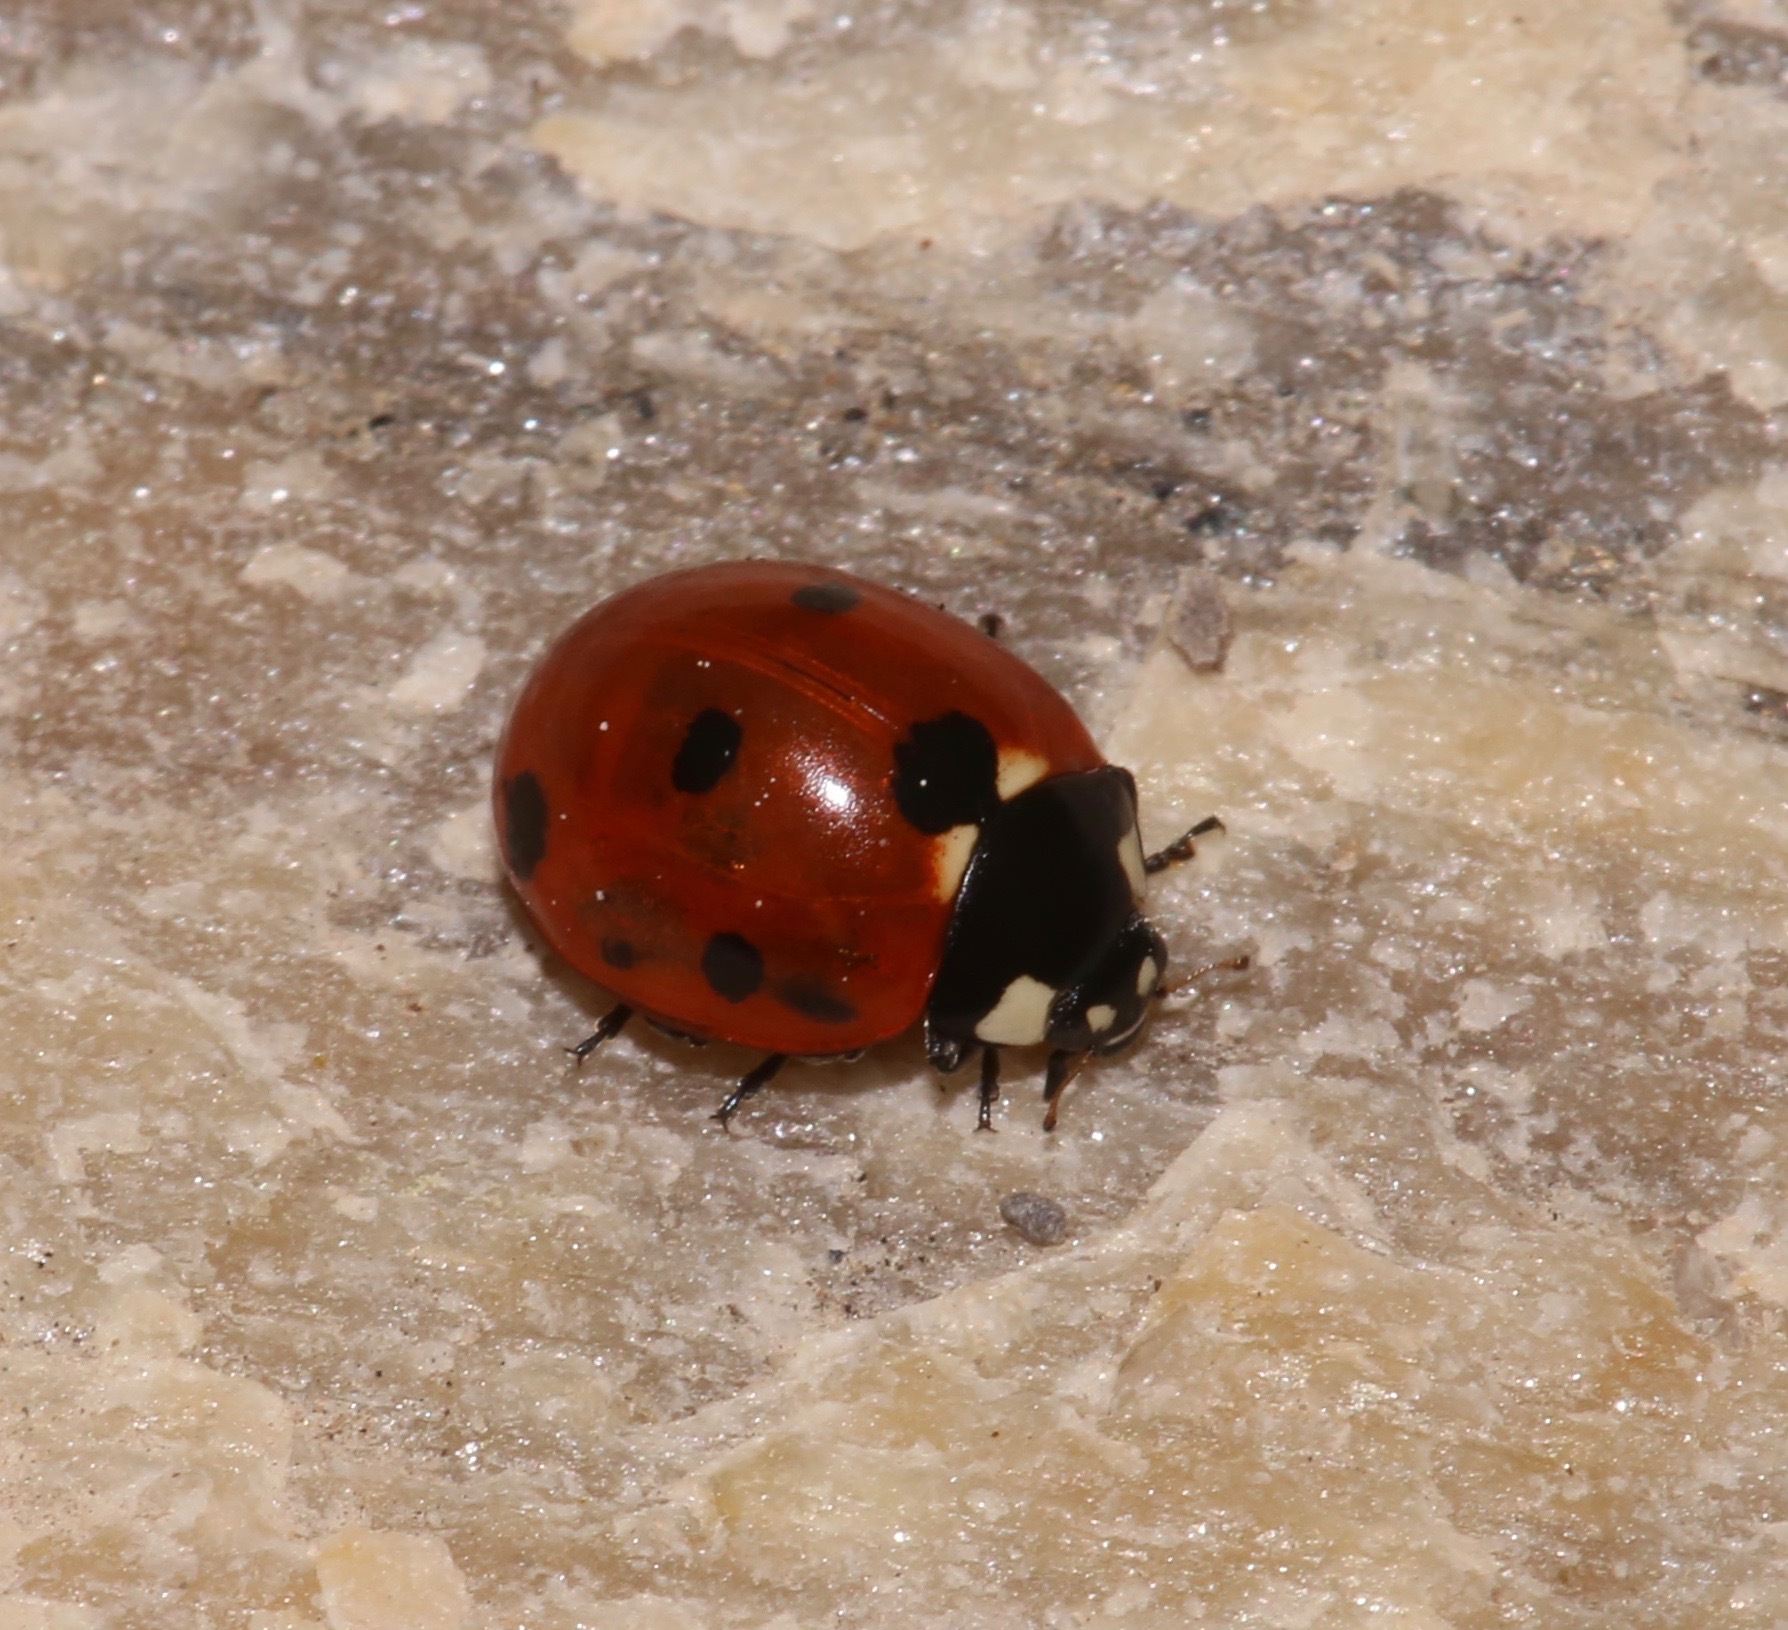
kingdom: Animalia
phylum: Arthropoda
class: Insecta
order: Coleoptera
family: Coccinellidae
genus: Coccinella
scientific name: Coccinella septempunctata
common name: Sevenspotted lady beetle
